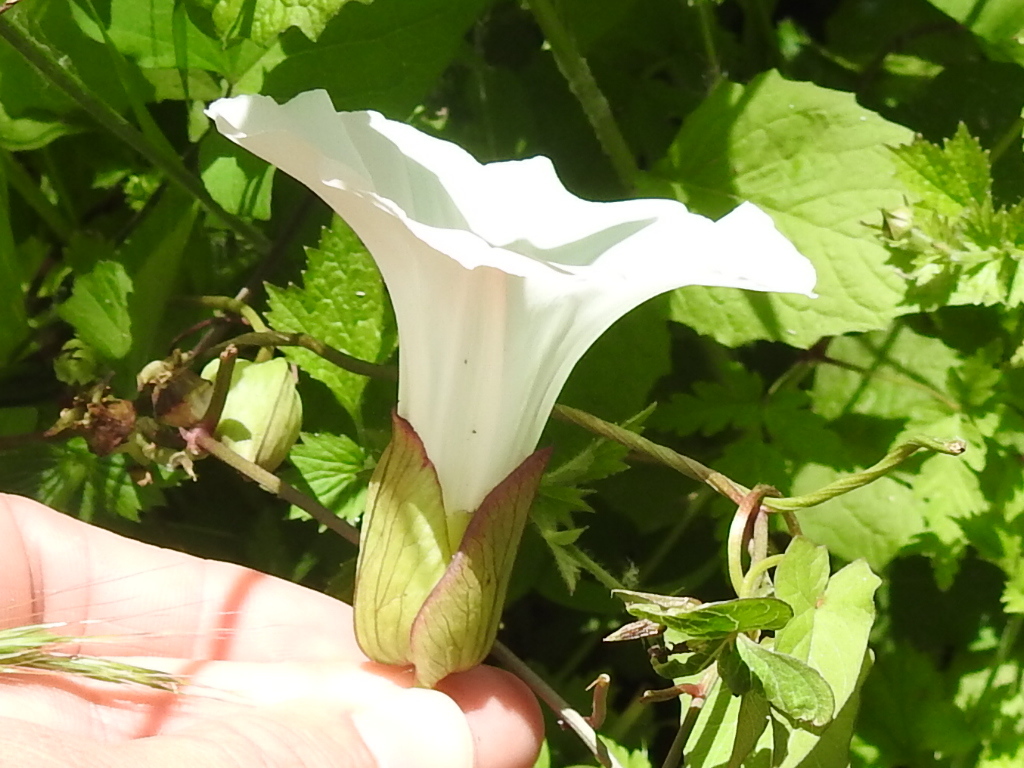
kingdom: Plantae
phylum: Tracheophyta
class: Magnoliopsida
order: Solanales
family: Convolvulaceae
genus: Calystegia
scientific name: Calystegia silvatica
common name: Large bindweed
